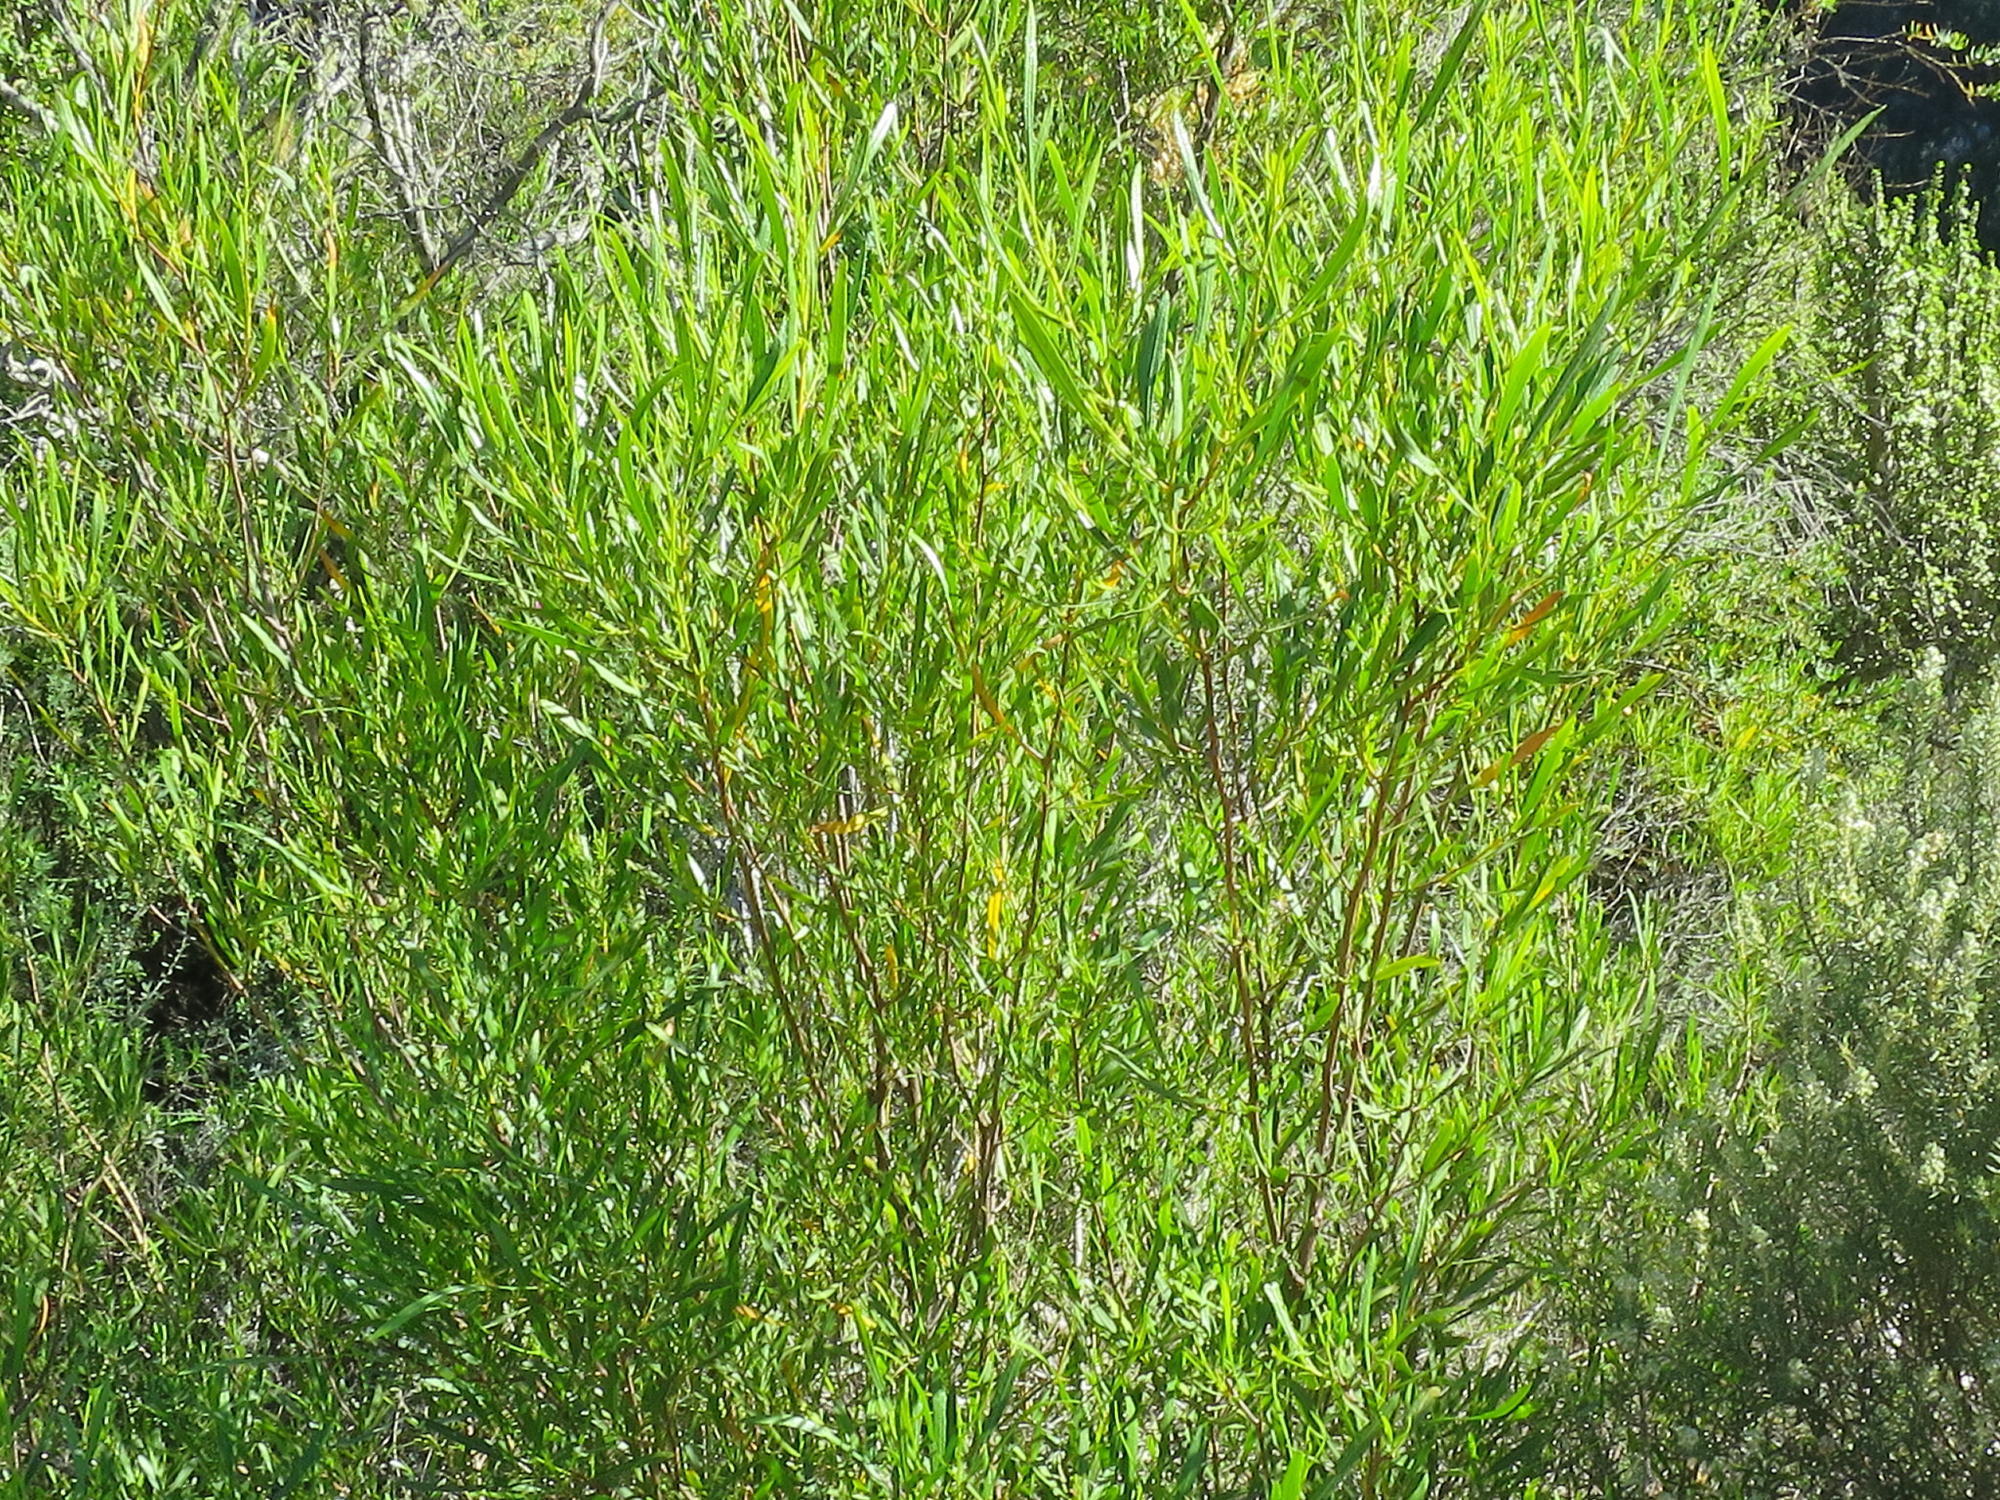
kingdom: Plantae
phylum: Tracheophyta
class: Magnoliopsida
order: Sapindales
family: Sapindaceae
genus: Dodonaea
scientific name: Dodonaea viscosa
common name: Hopbush
